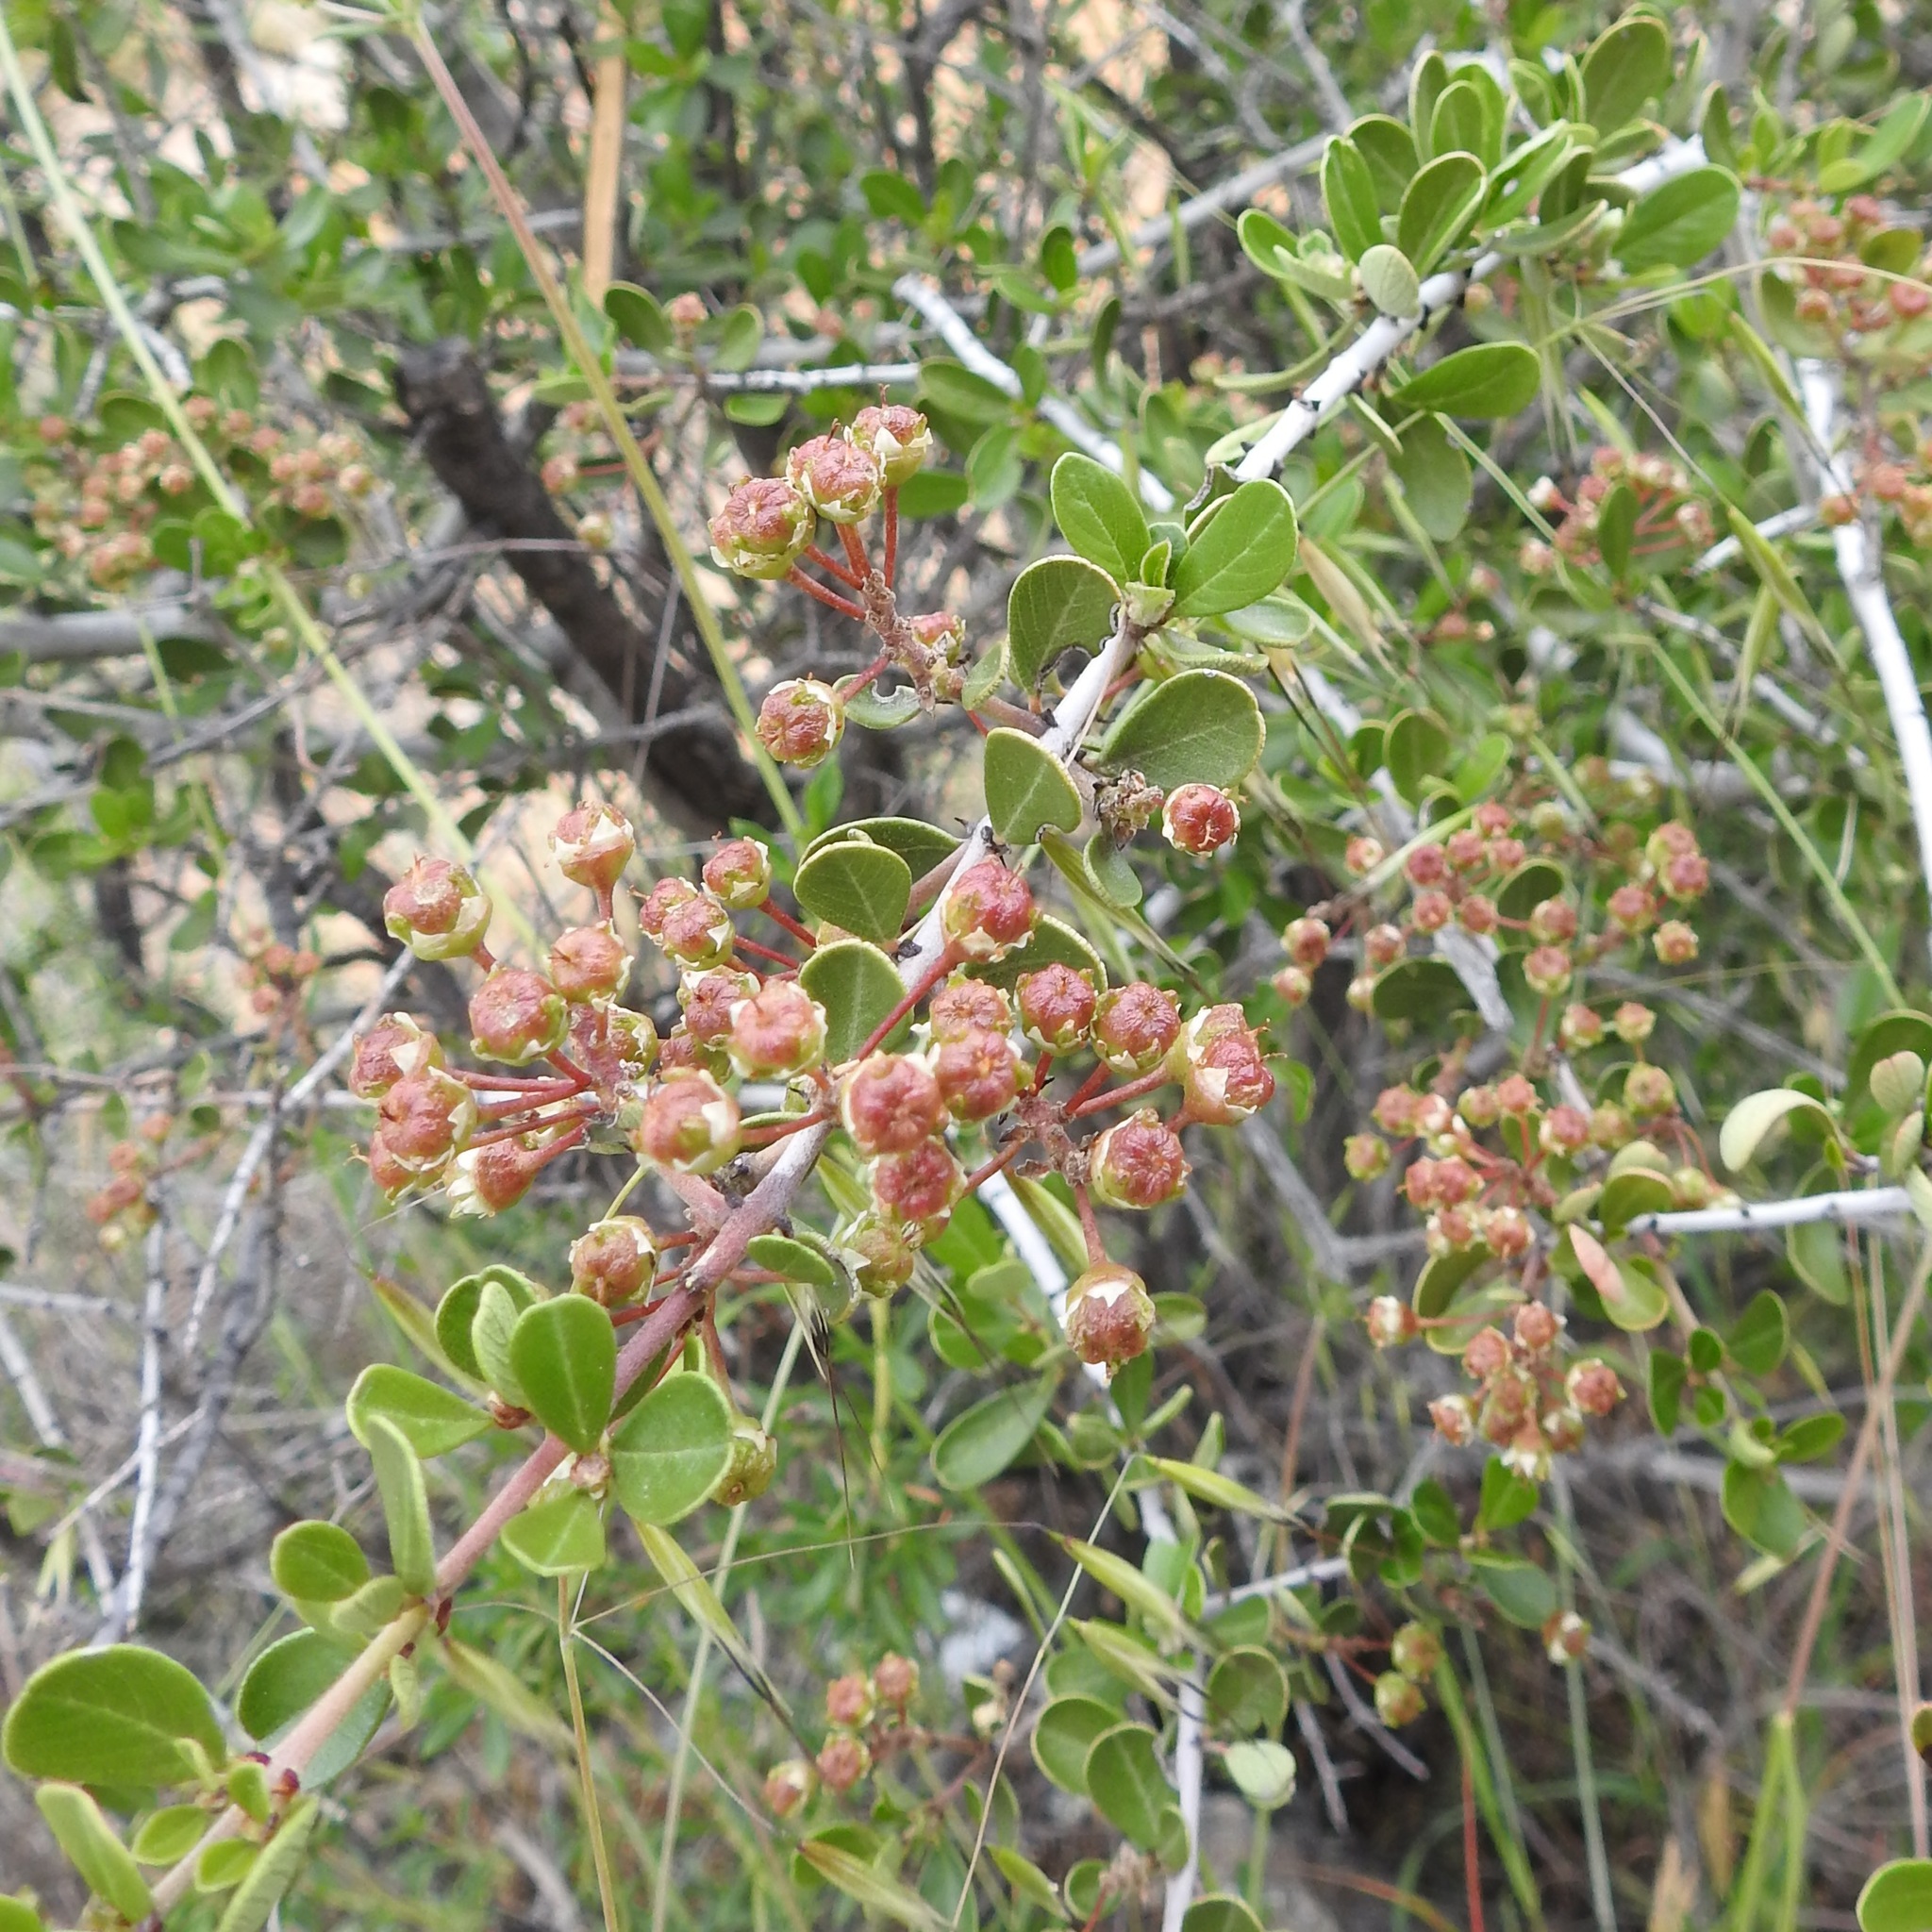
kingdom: Plantae
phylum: Tracheophyta
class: Magnoliopsida
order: Rosales
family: Rhamnaceae
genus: Ceanothus
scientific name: Ceanothus cuneatus
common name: Cuneate ceanothus
